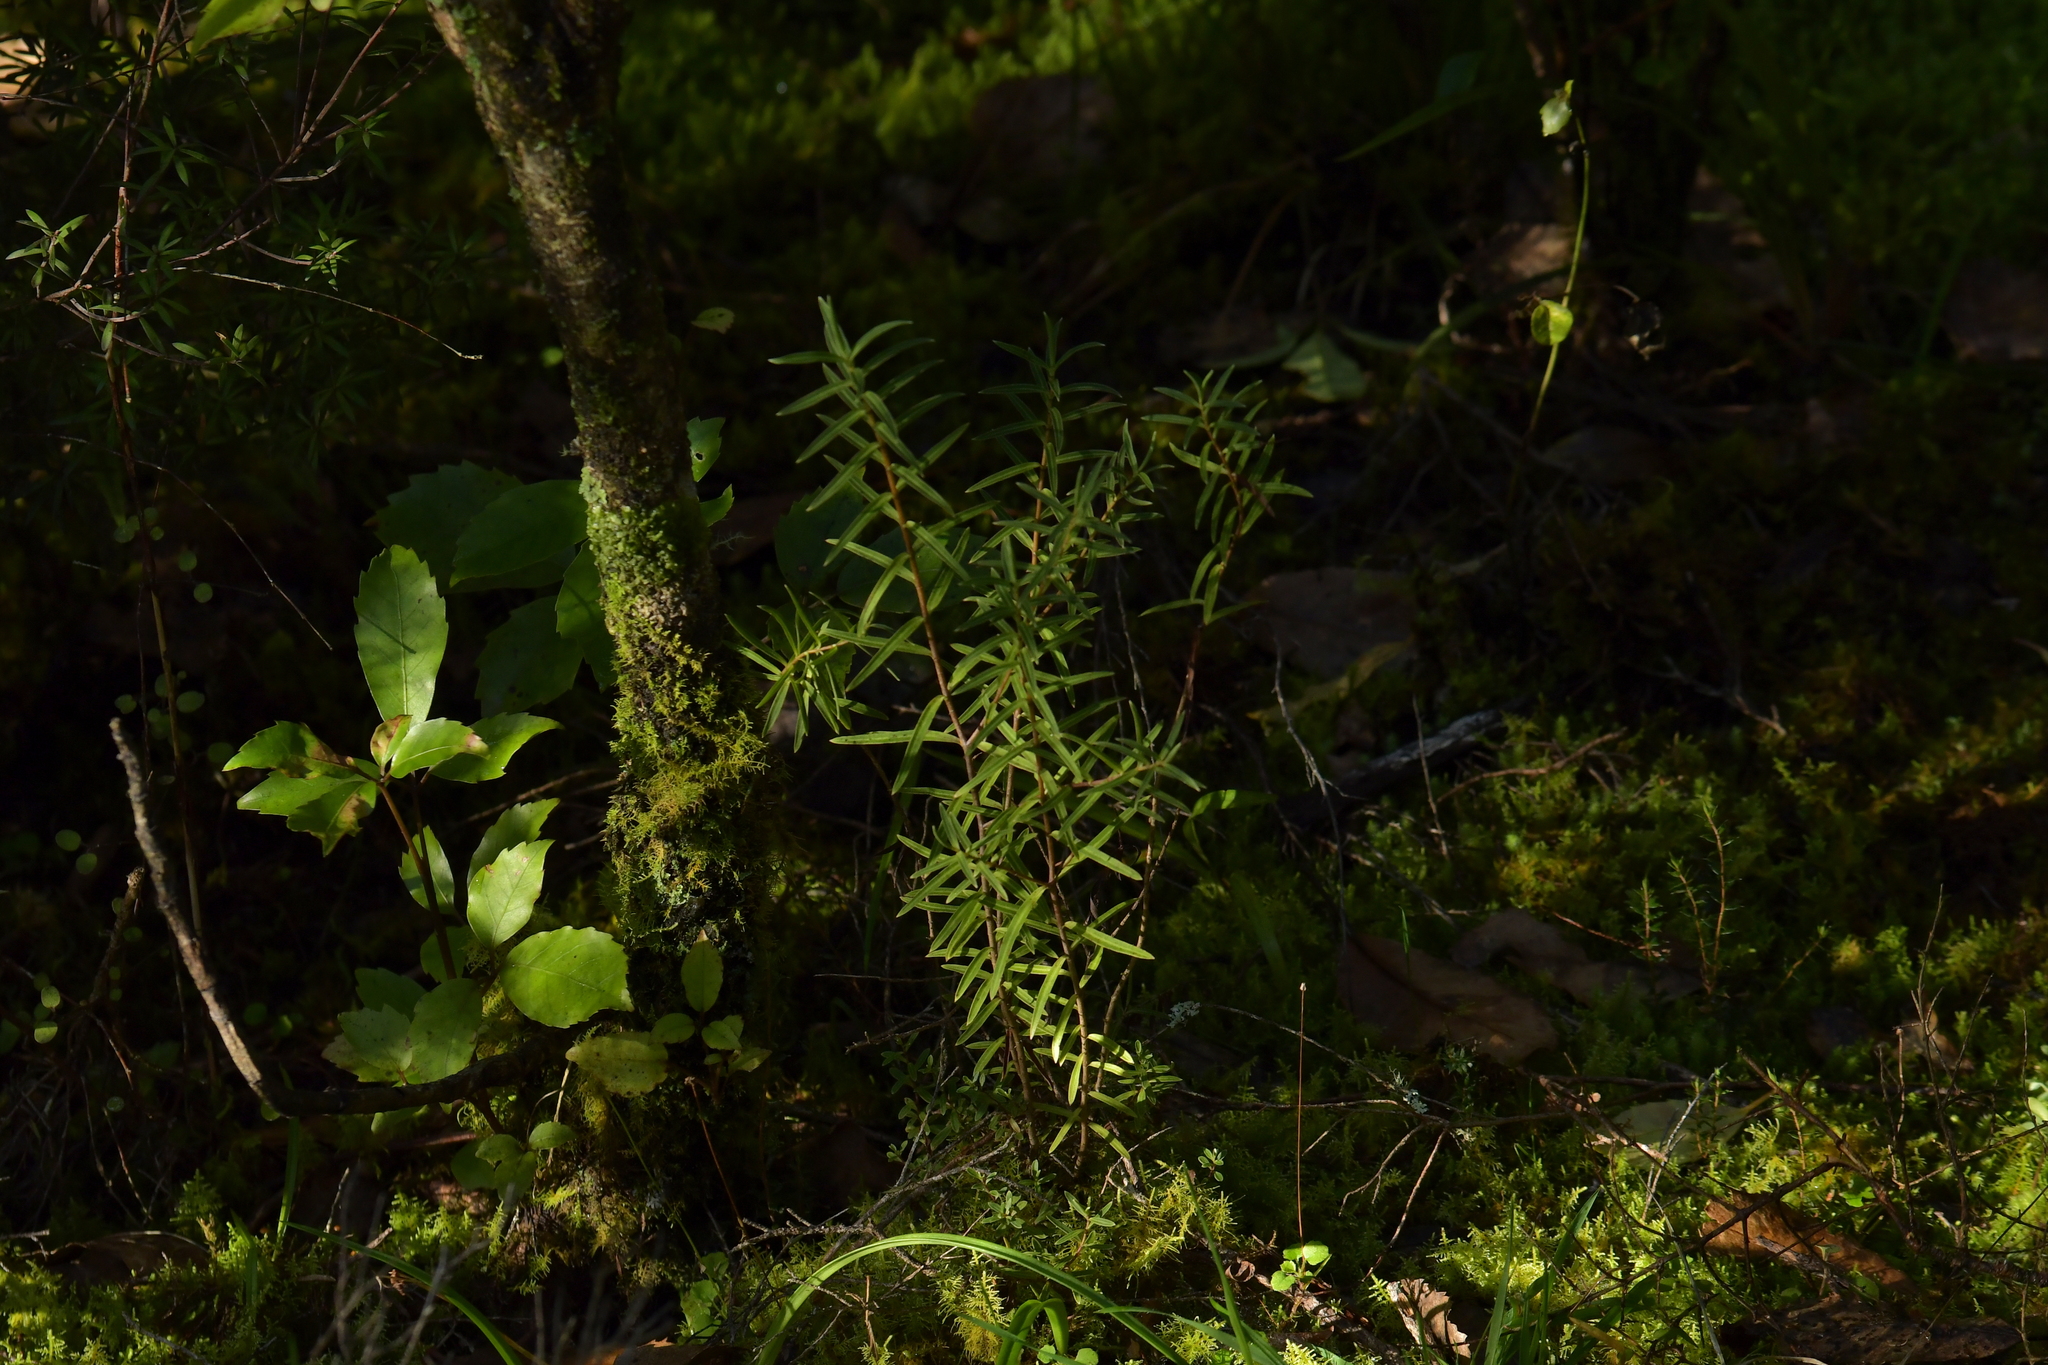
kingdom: Plantae
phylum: Tracheophyta
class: Magnoliopsida
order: Lamiales
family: Plantaginaceae
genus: Veronica
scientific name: Veronica parviflora
